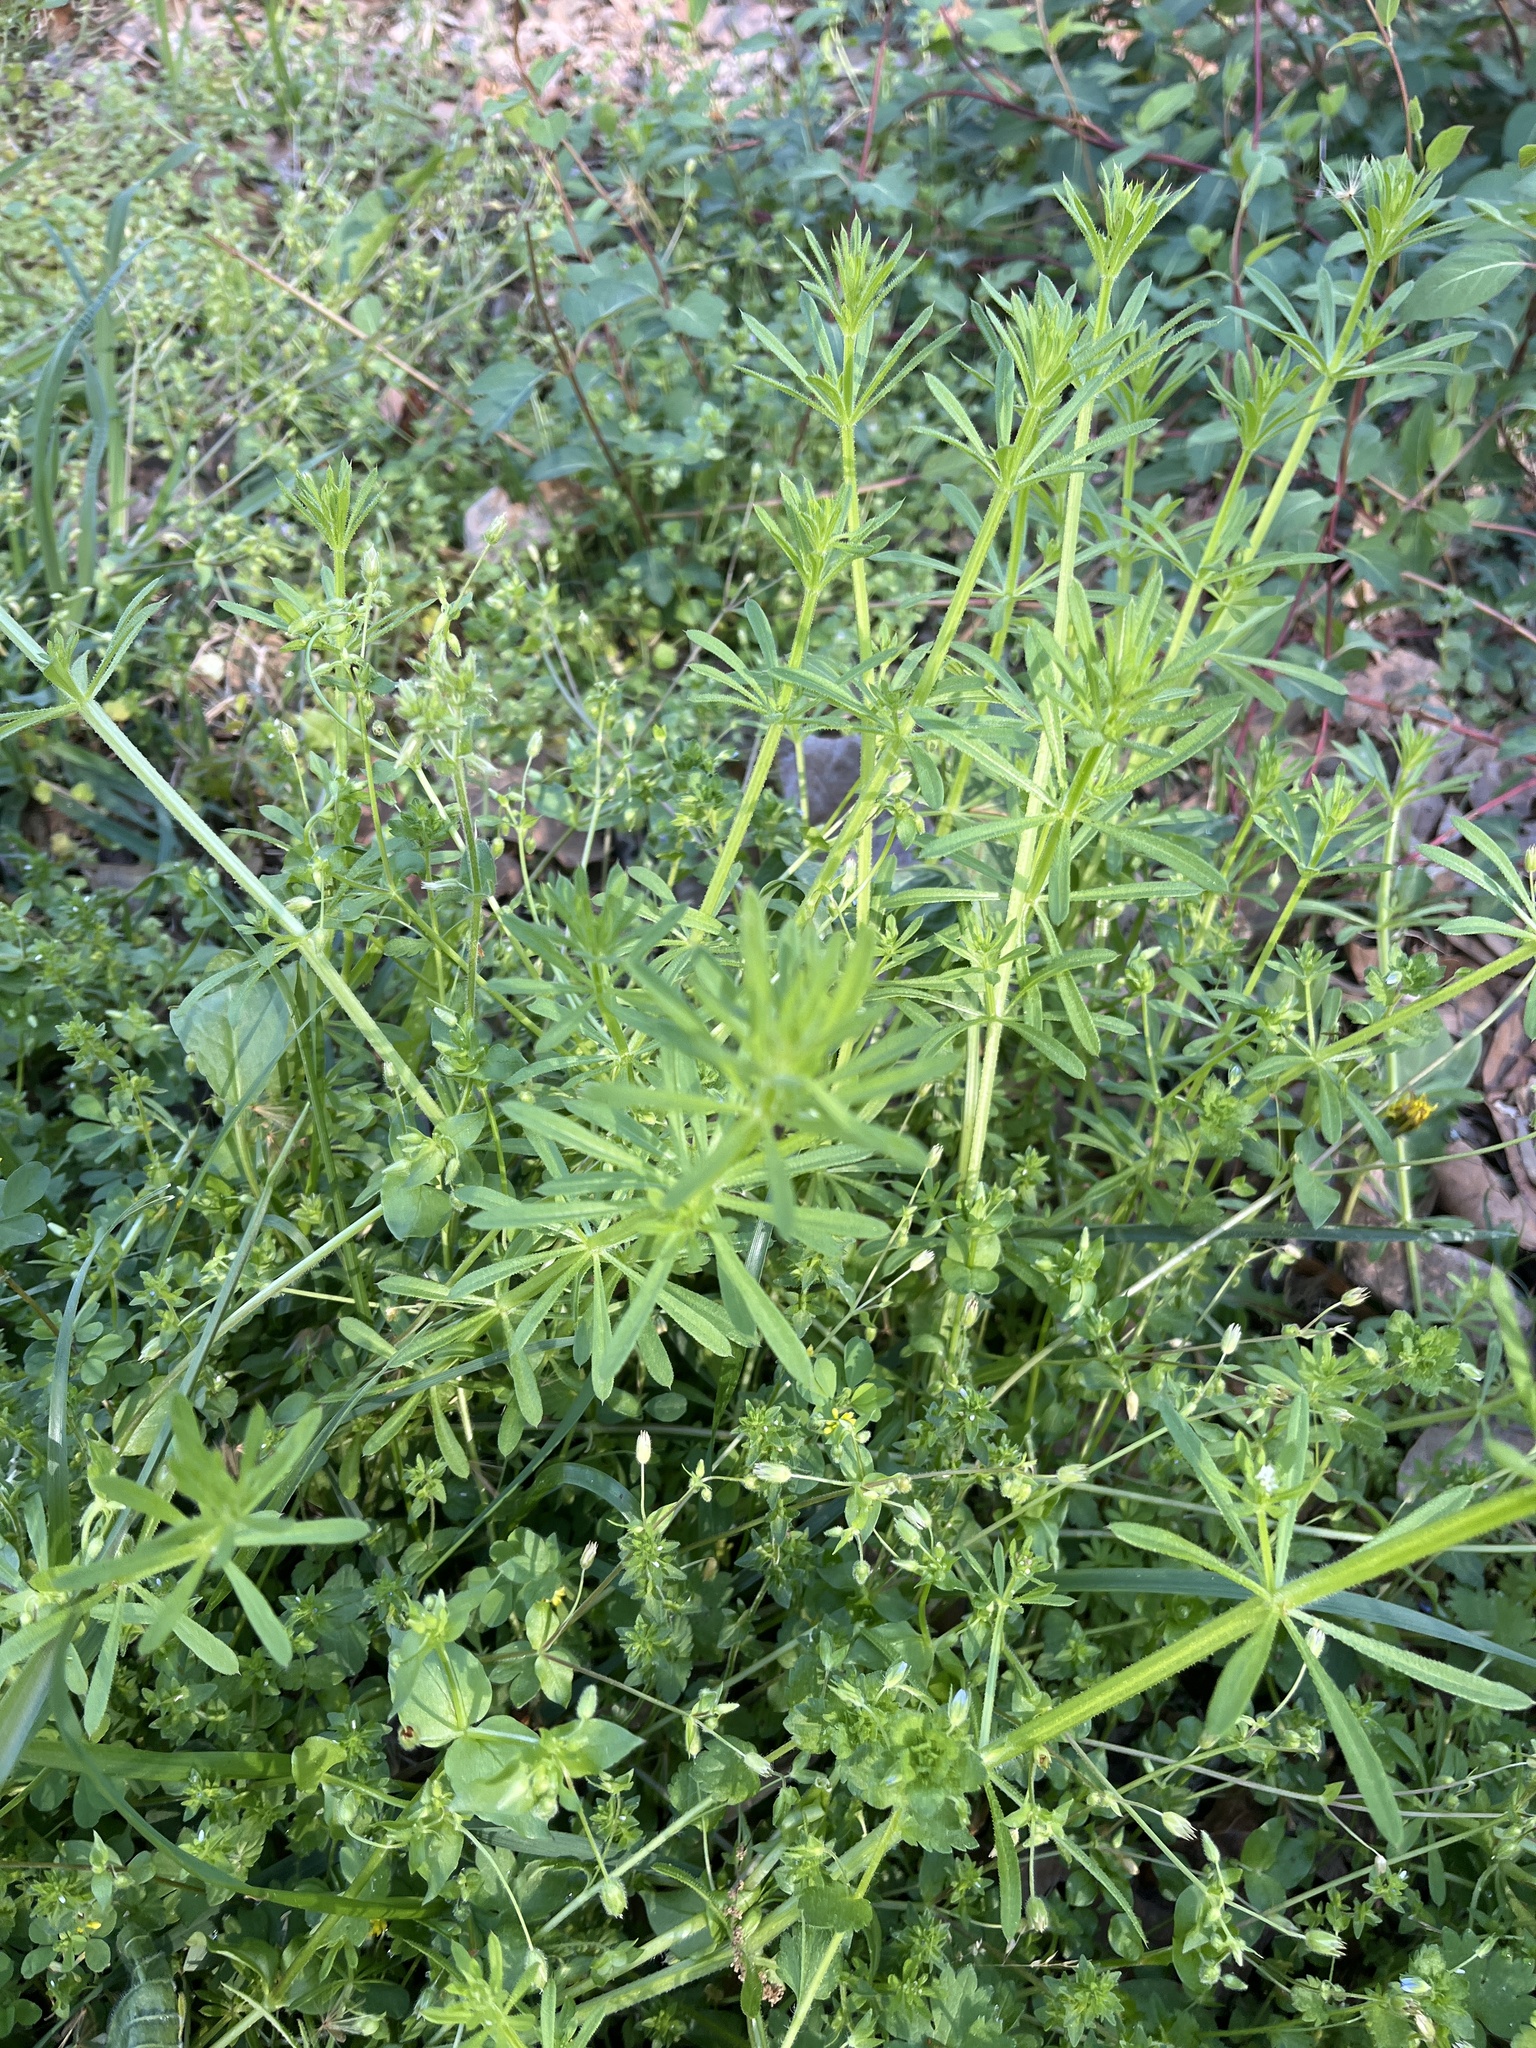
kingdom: Plantae
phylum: Tracheophyta
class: Magnoliopsida
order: Gentianales
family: Rubiaceae
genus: Galium
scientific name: Galium aparine
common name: Cleavers
